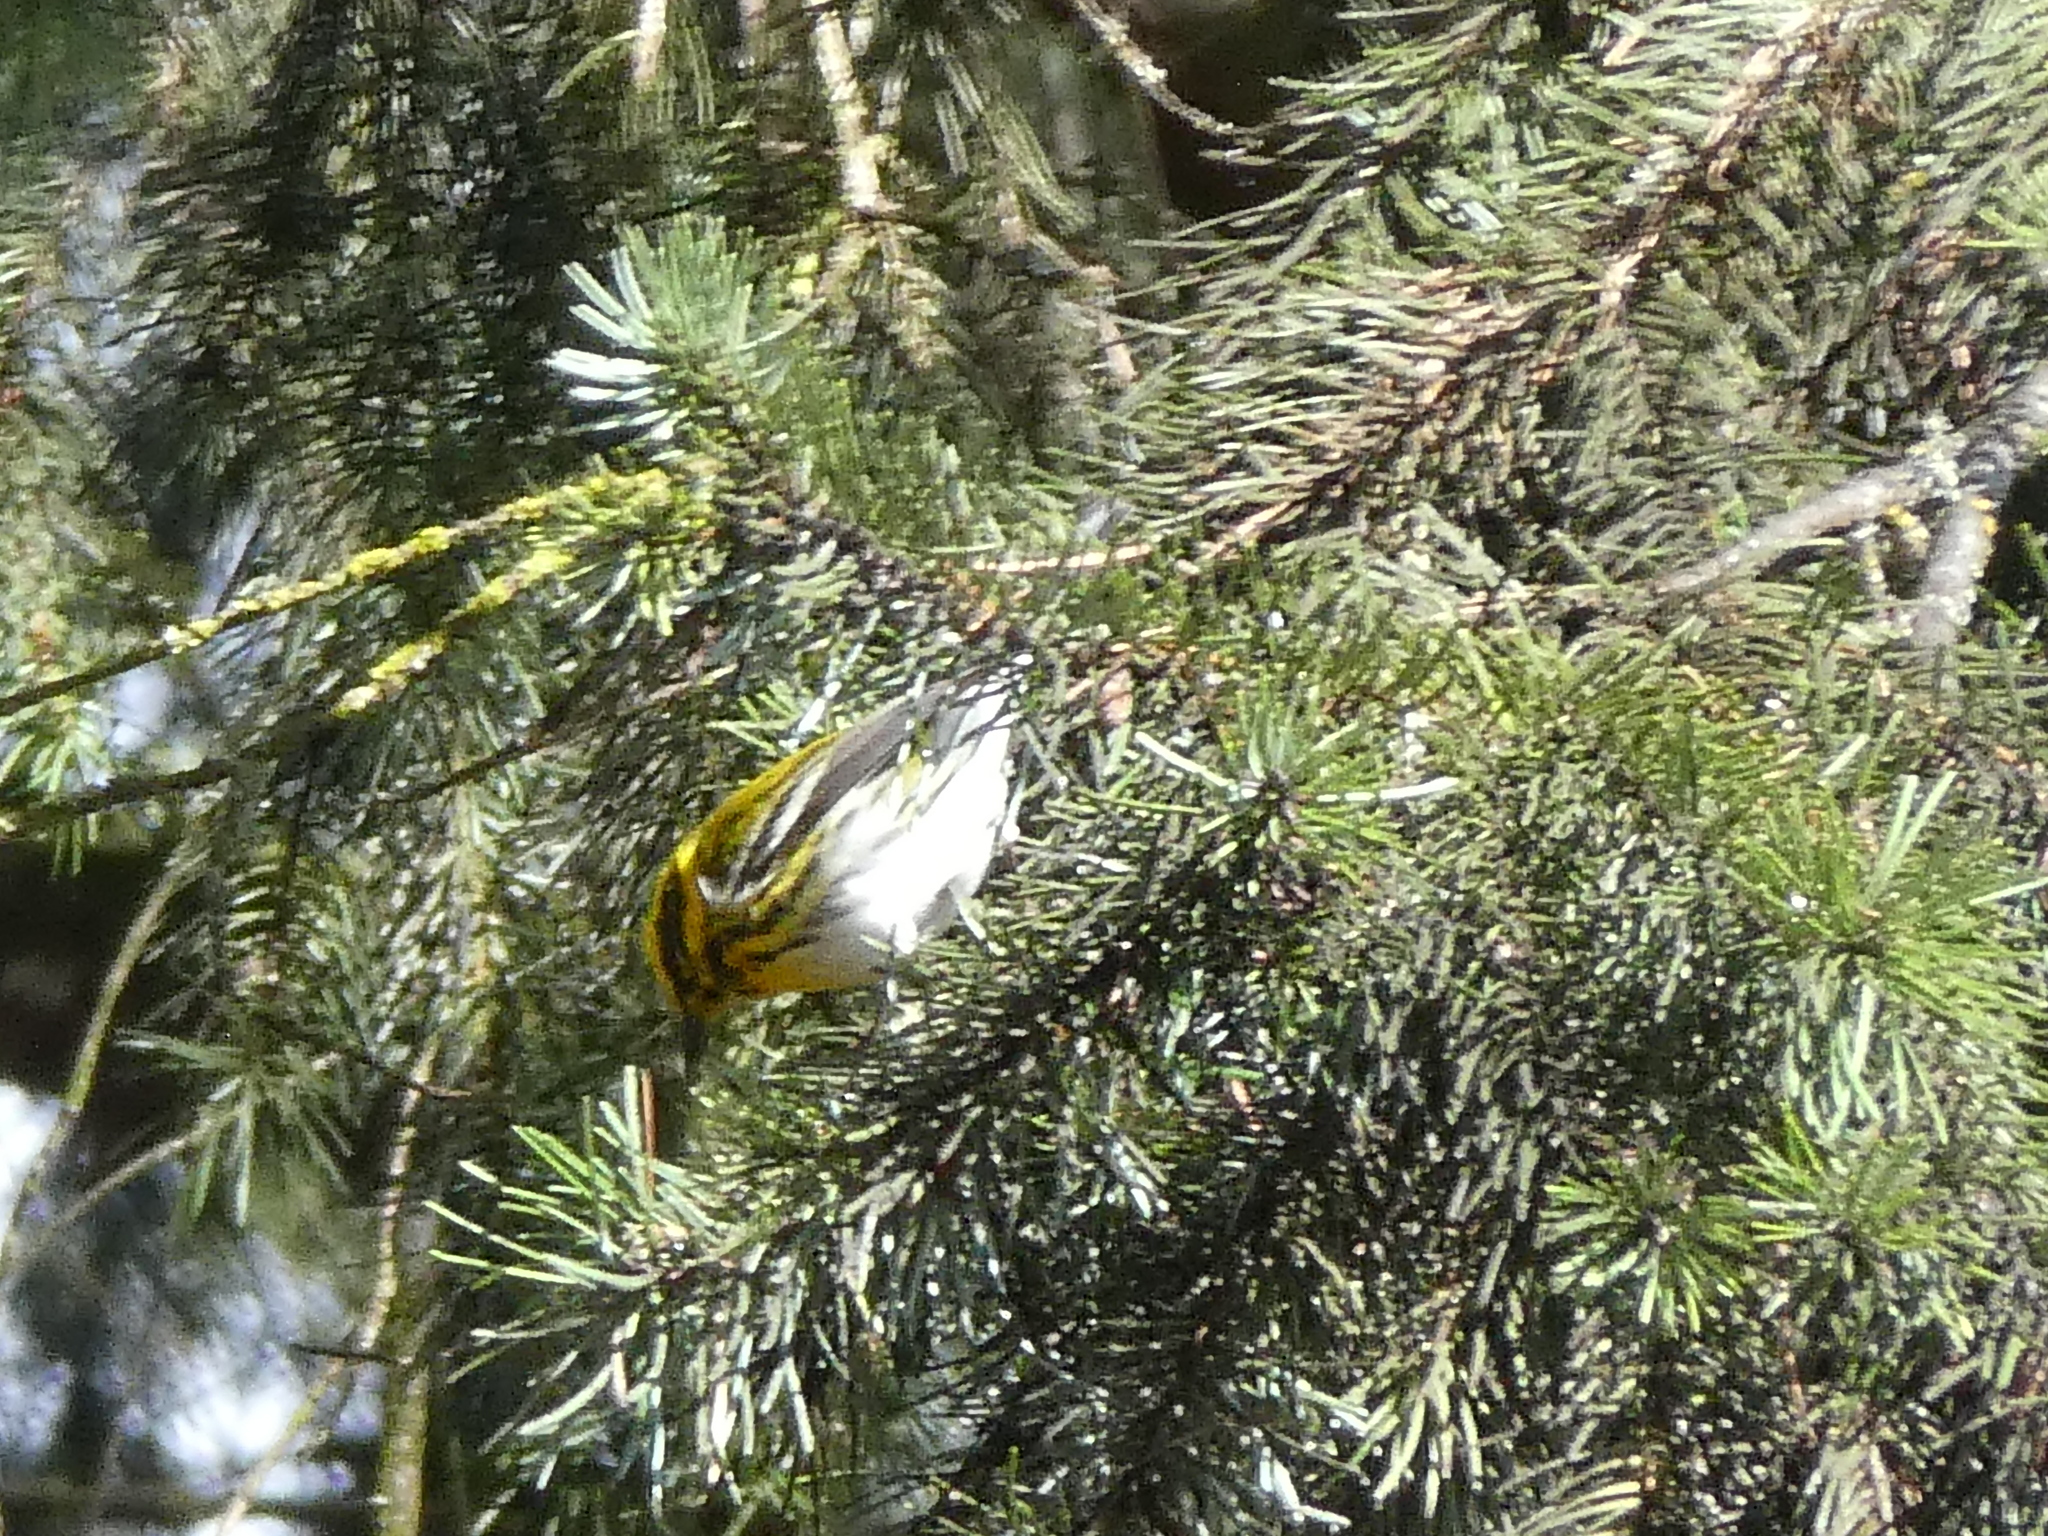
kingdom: Animalia
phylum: Chordata
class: Aves
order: Passeriformes
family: Parulidae
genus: Setophaga
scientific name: Setophaga townsendi
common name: Townsend's warbler
